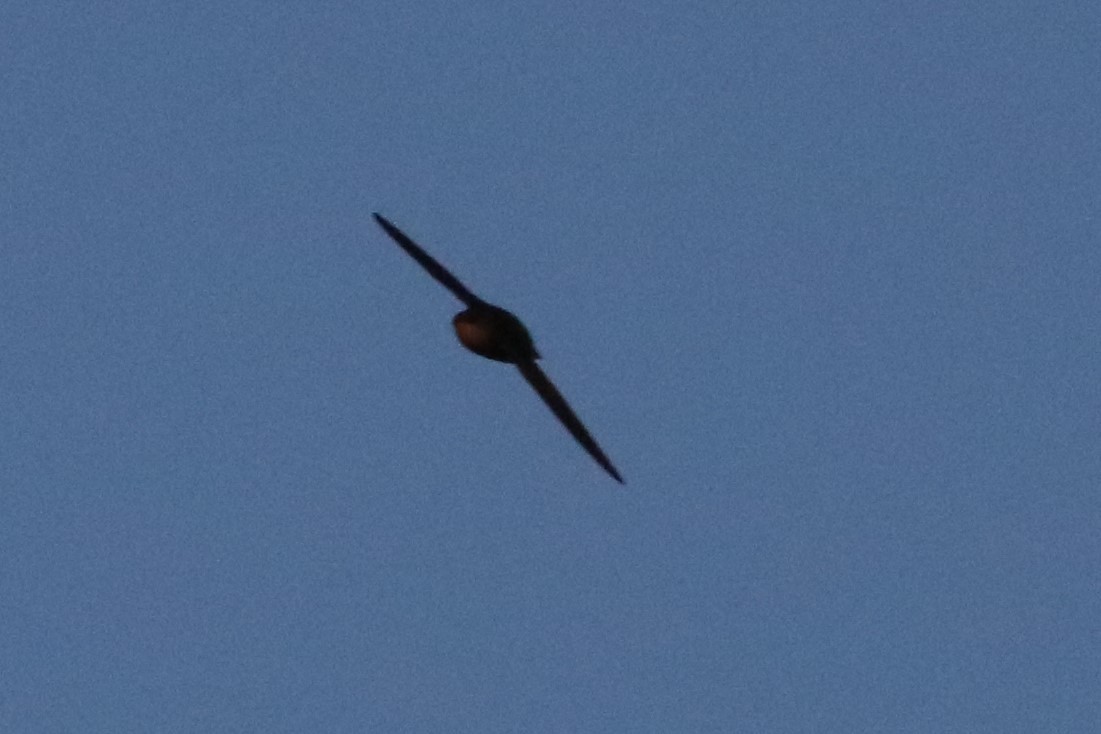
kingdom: Animalia
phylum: Chordata
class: Aves
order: Apodiformes
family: Apodidae
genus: Chaetura
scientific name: Chaetura pelagica
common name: Chimney swift
